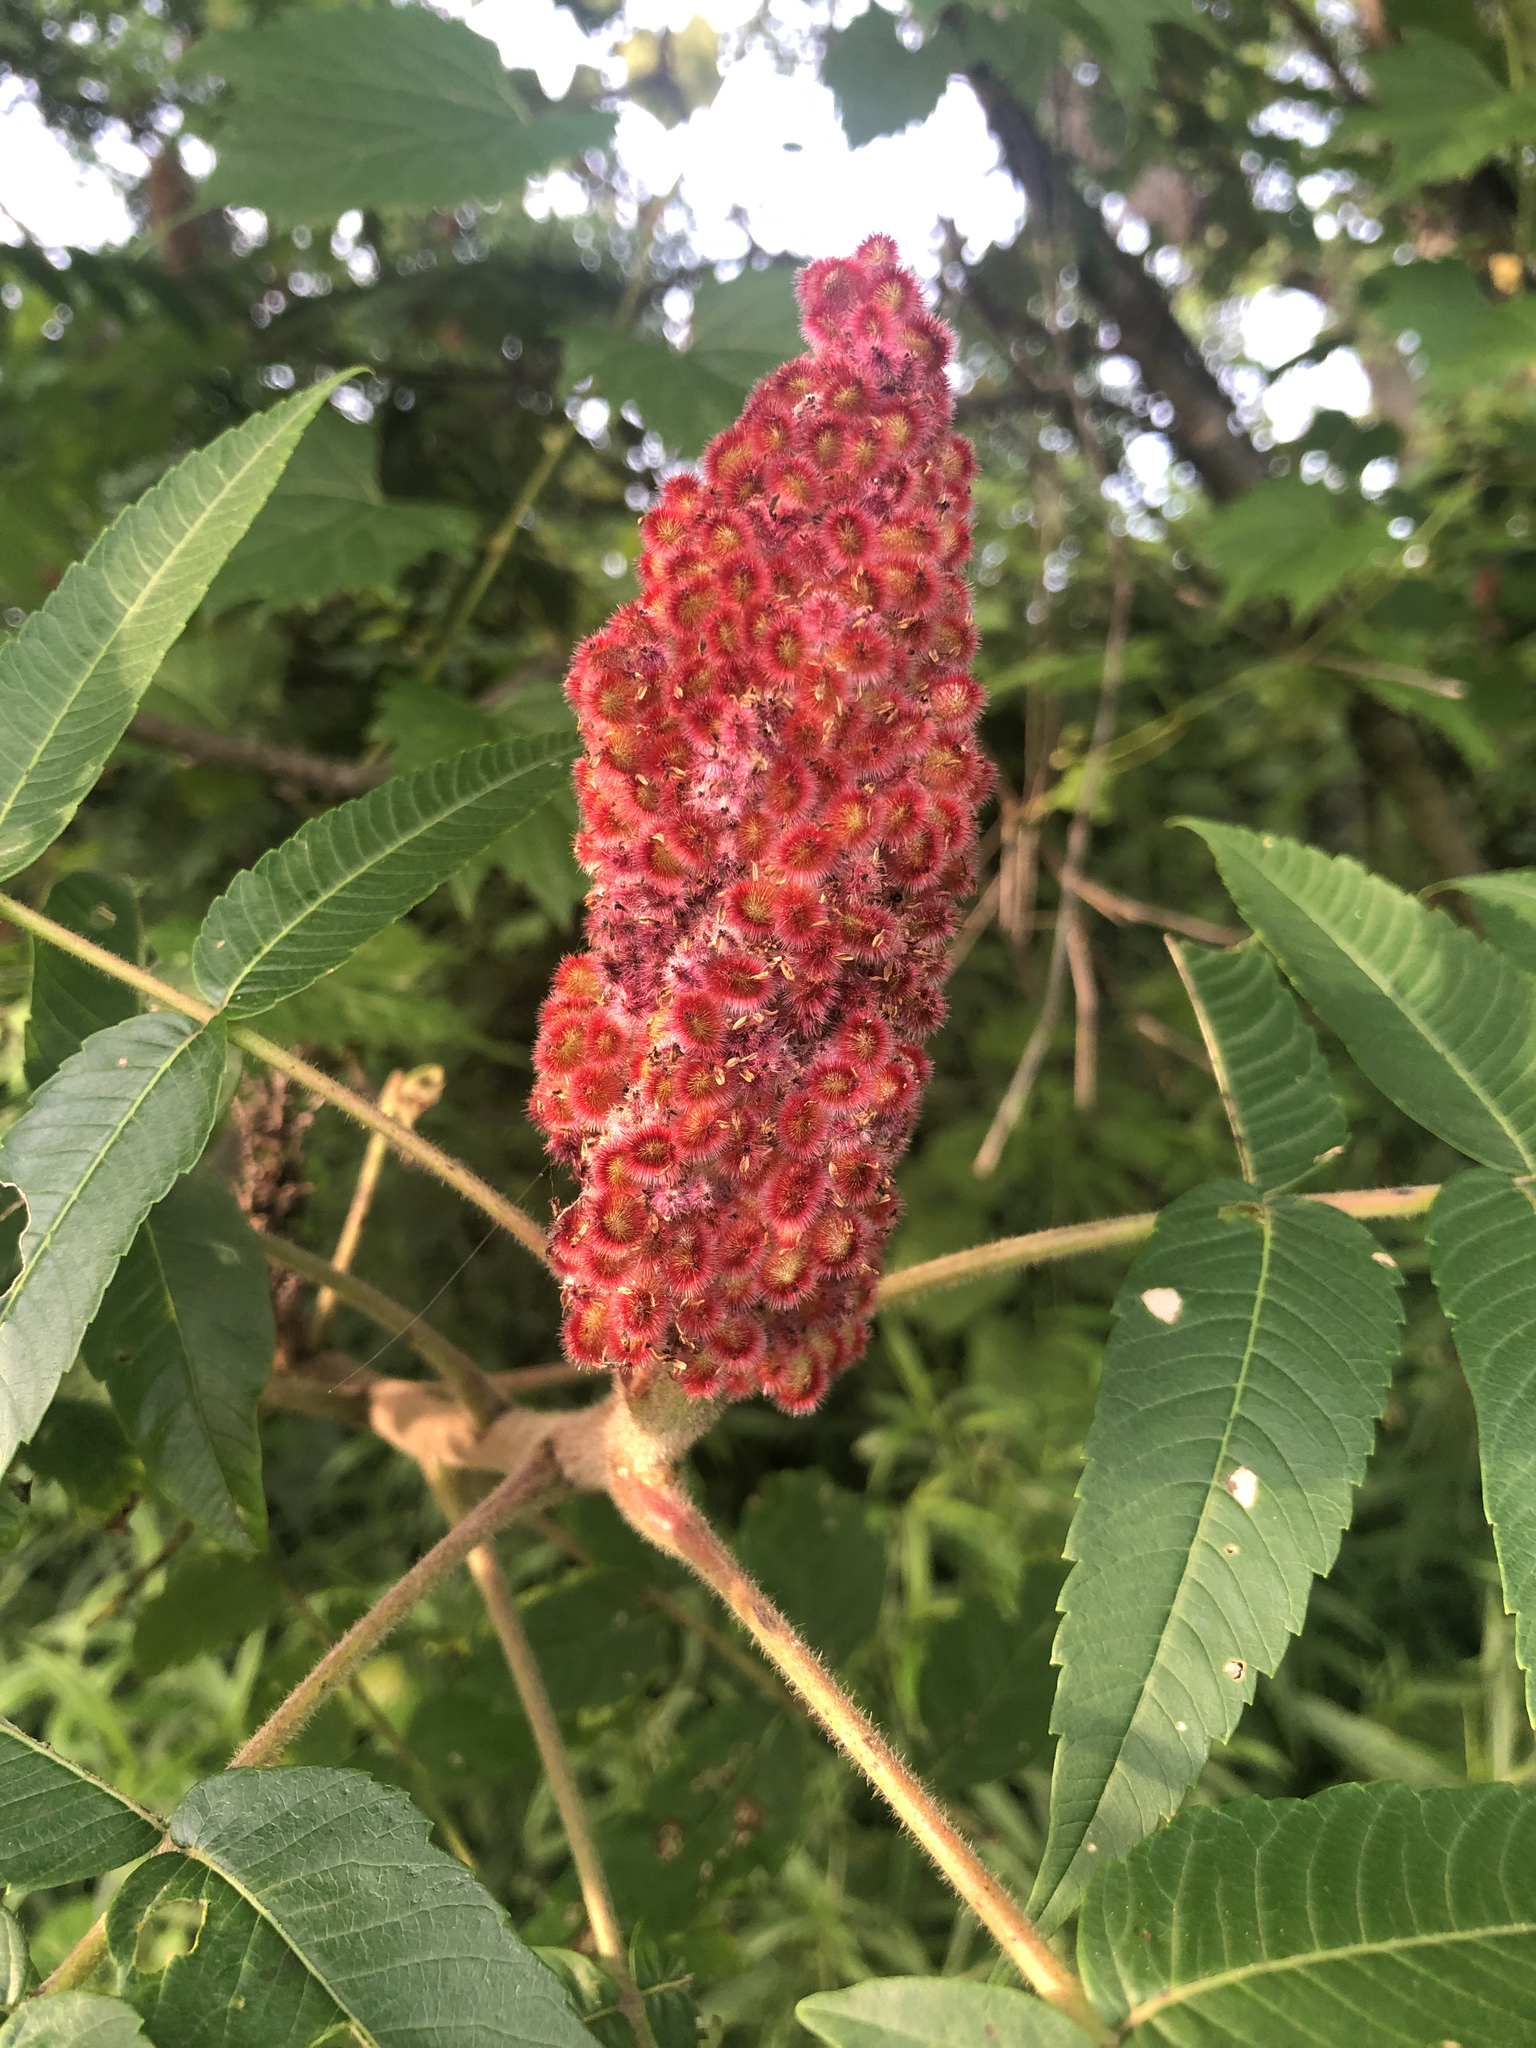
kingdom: Plantae
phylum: Tracheophyta
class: Magnoliopsida
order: Sapindales
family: Anacardiaceae
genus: Rhus
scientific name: Rhus typhina
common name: Staghorn sumac
